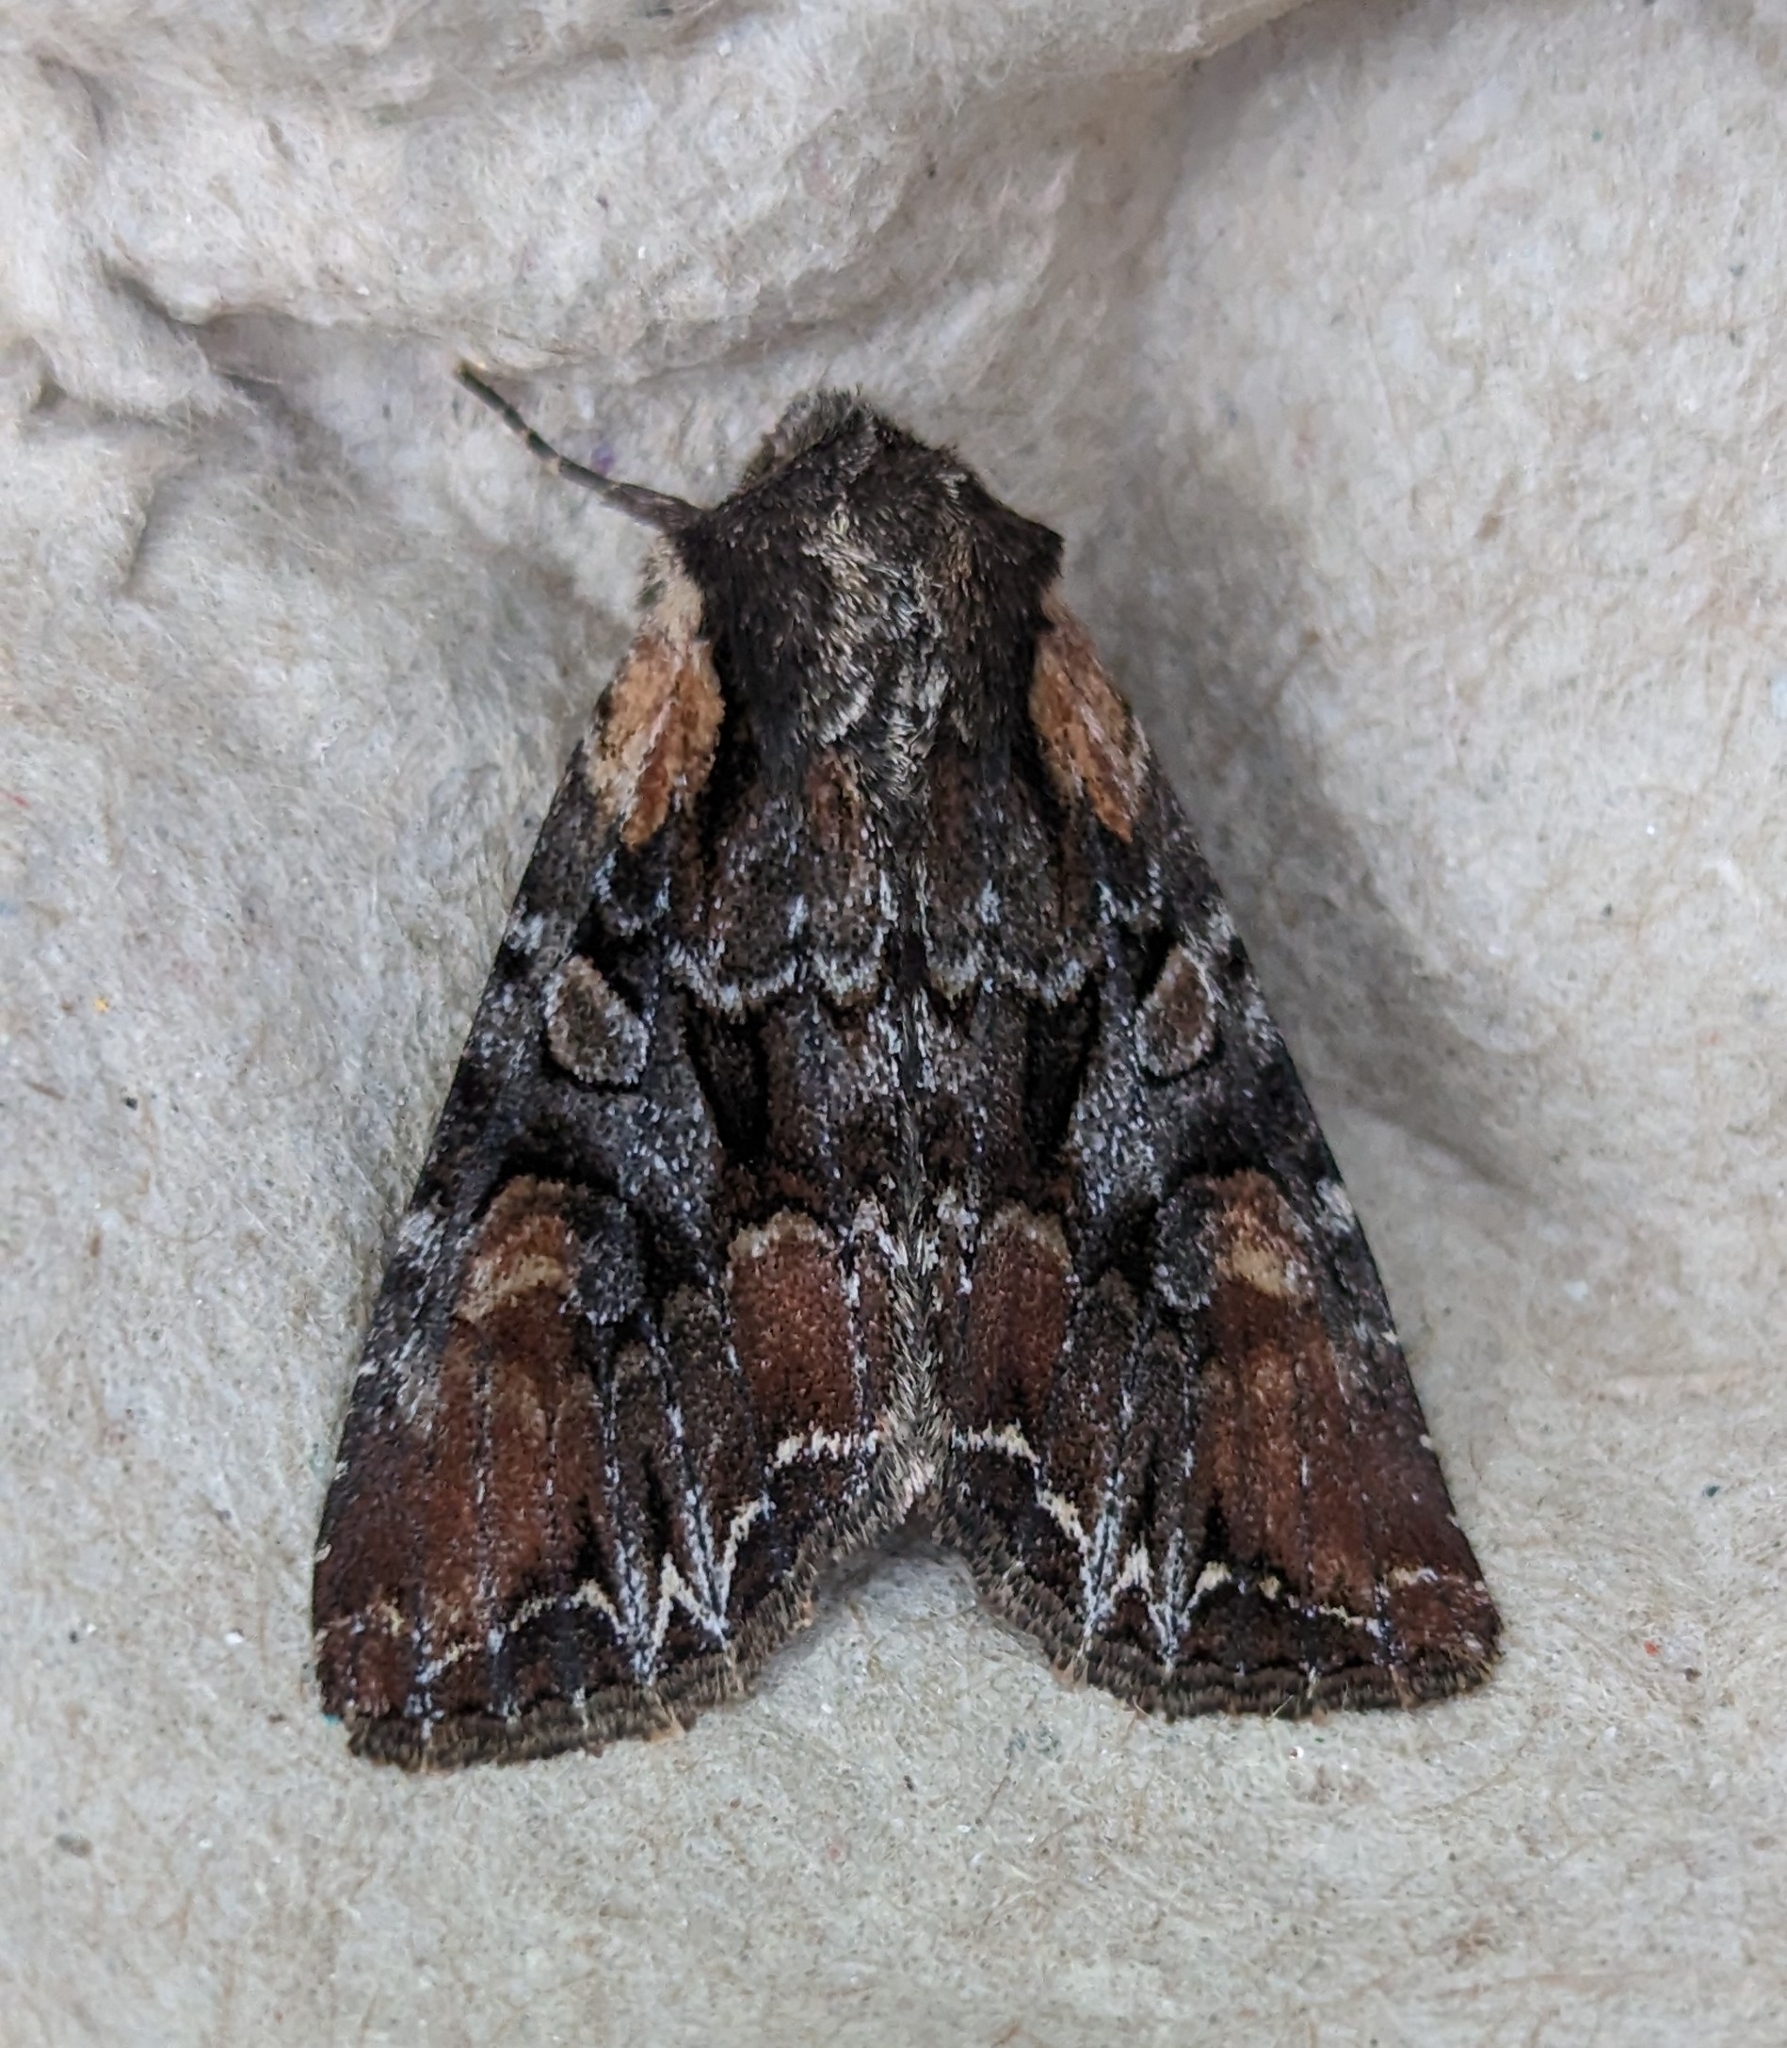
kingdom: Animalia
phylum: Arthropoda
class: Insecta
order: Lepidoptera
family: Noctuidae
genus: Lacanobia
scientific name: Lacanobia nevadae
